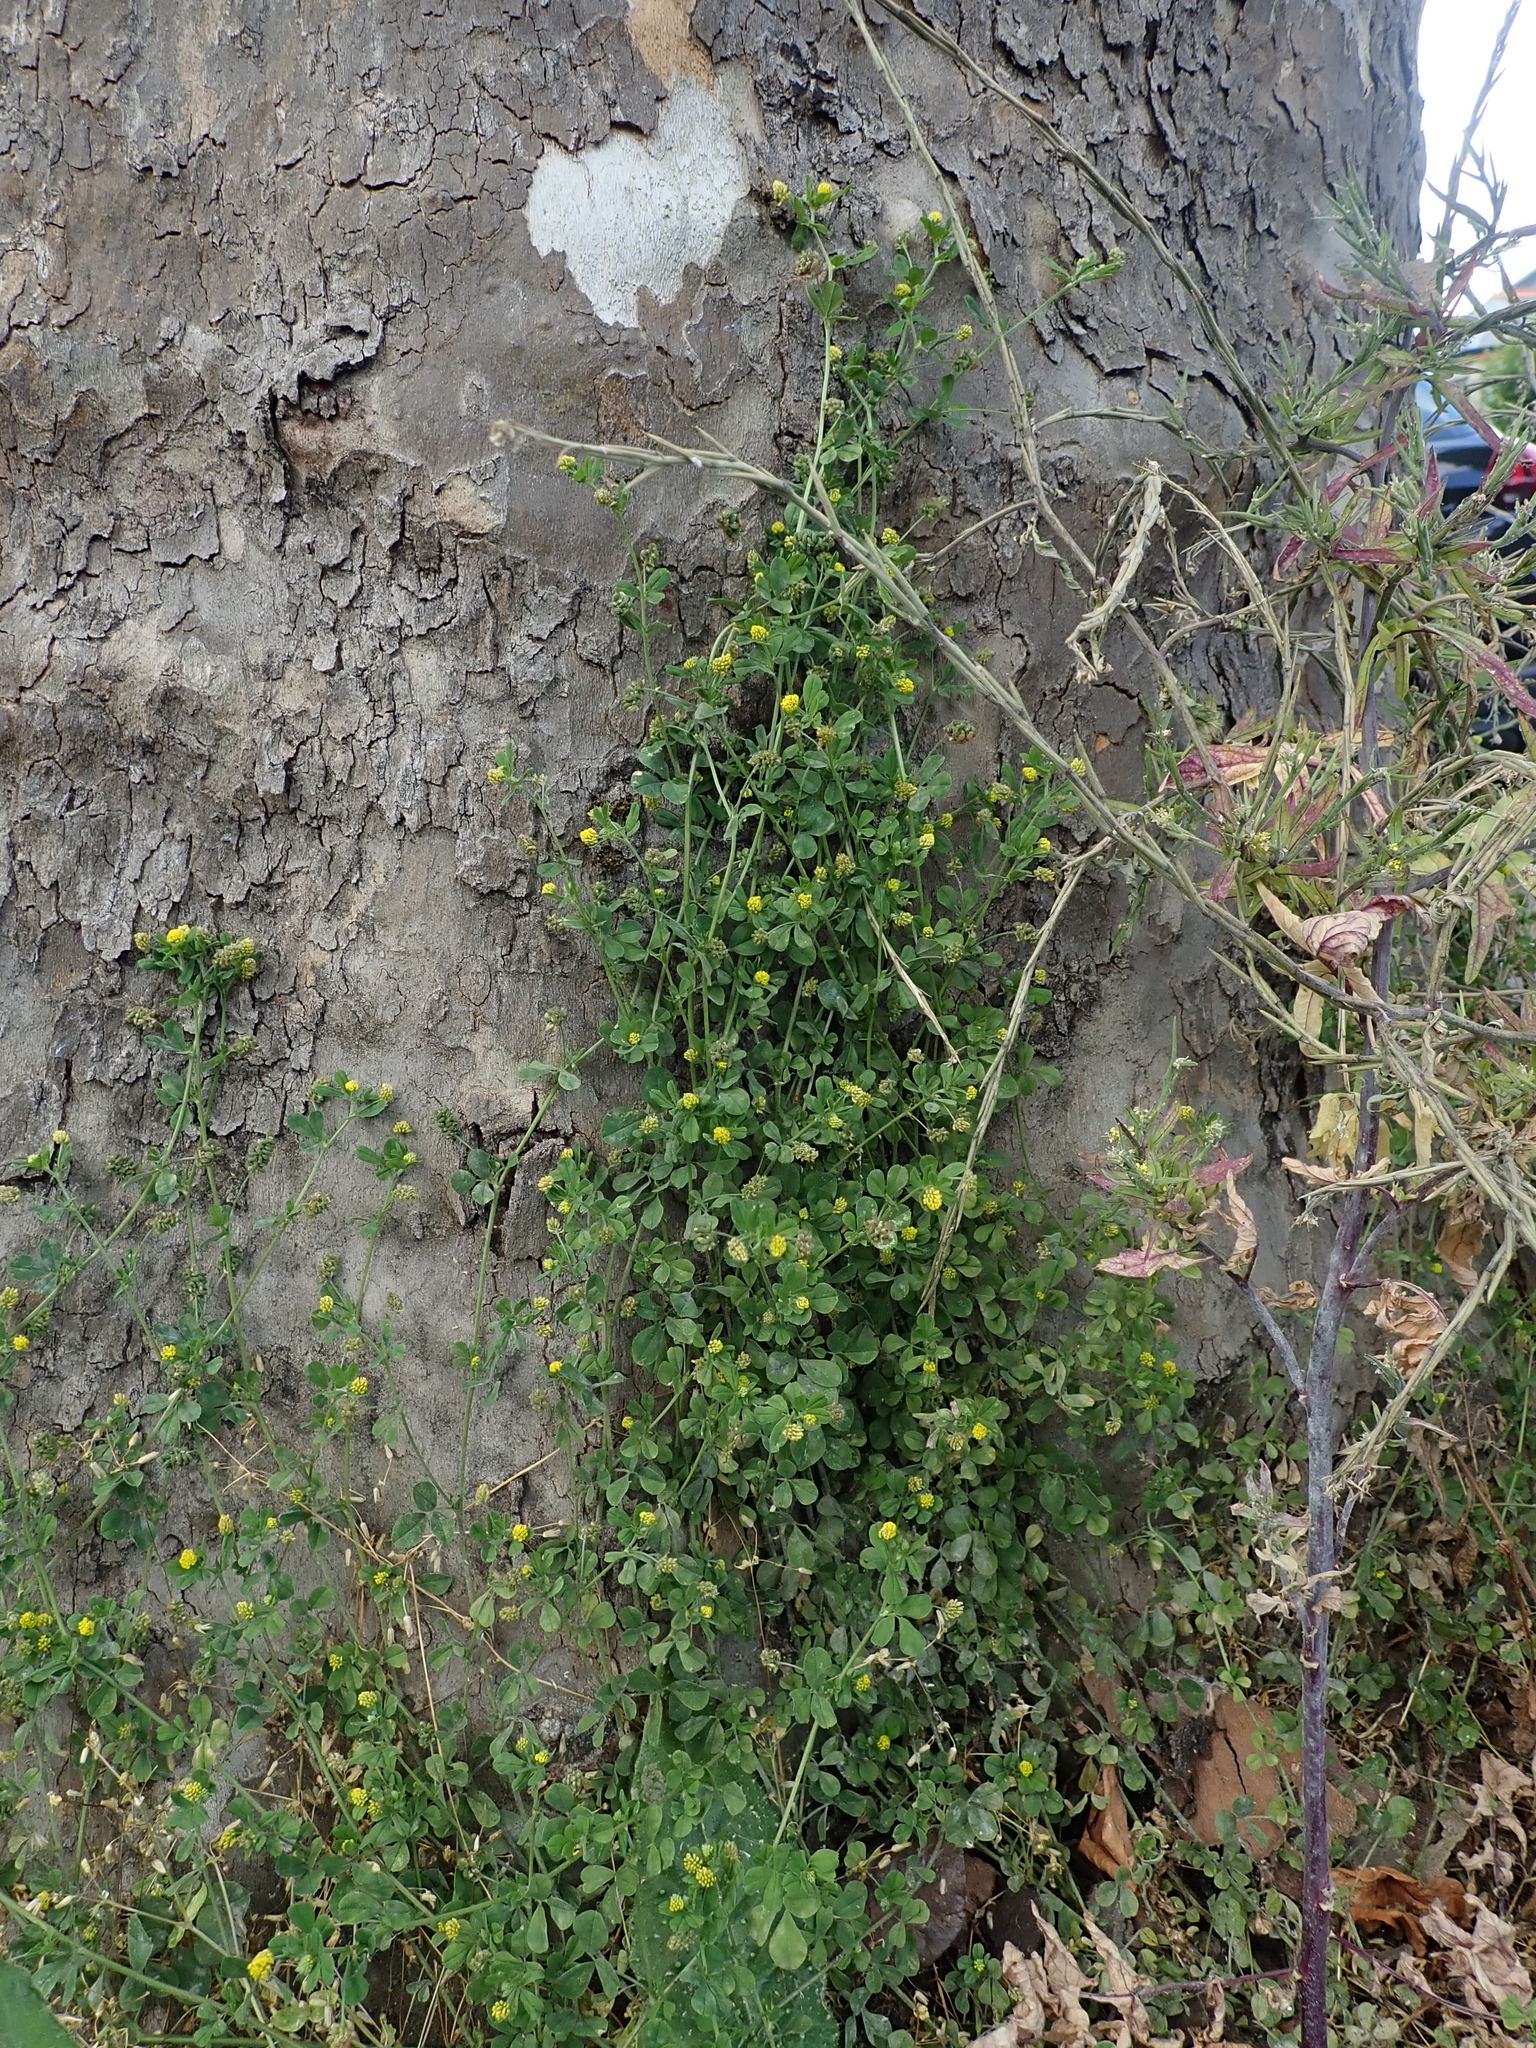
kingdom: Plantae
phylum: Tracheophyta
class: Magnoliopsida
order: Fabales
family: Fabaceae
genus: Medicago
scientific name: Medicago lupulina
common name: Black medick
